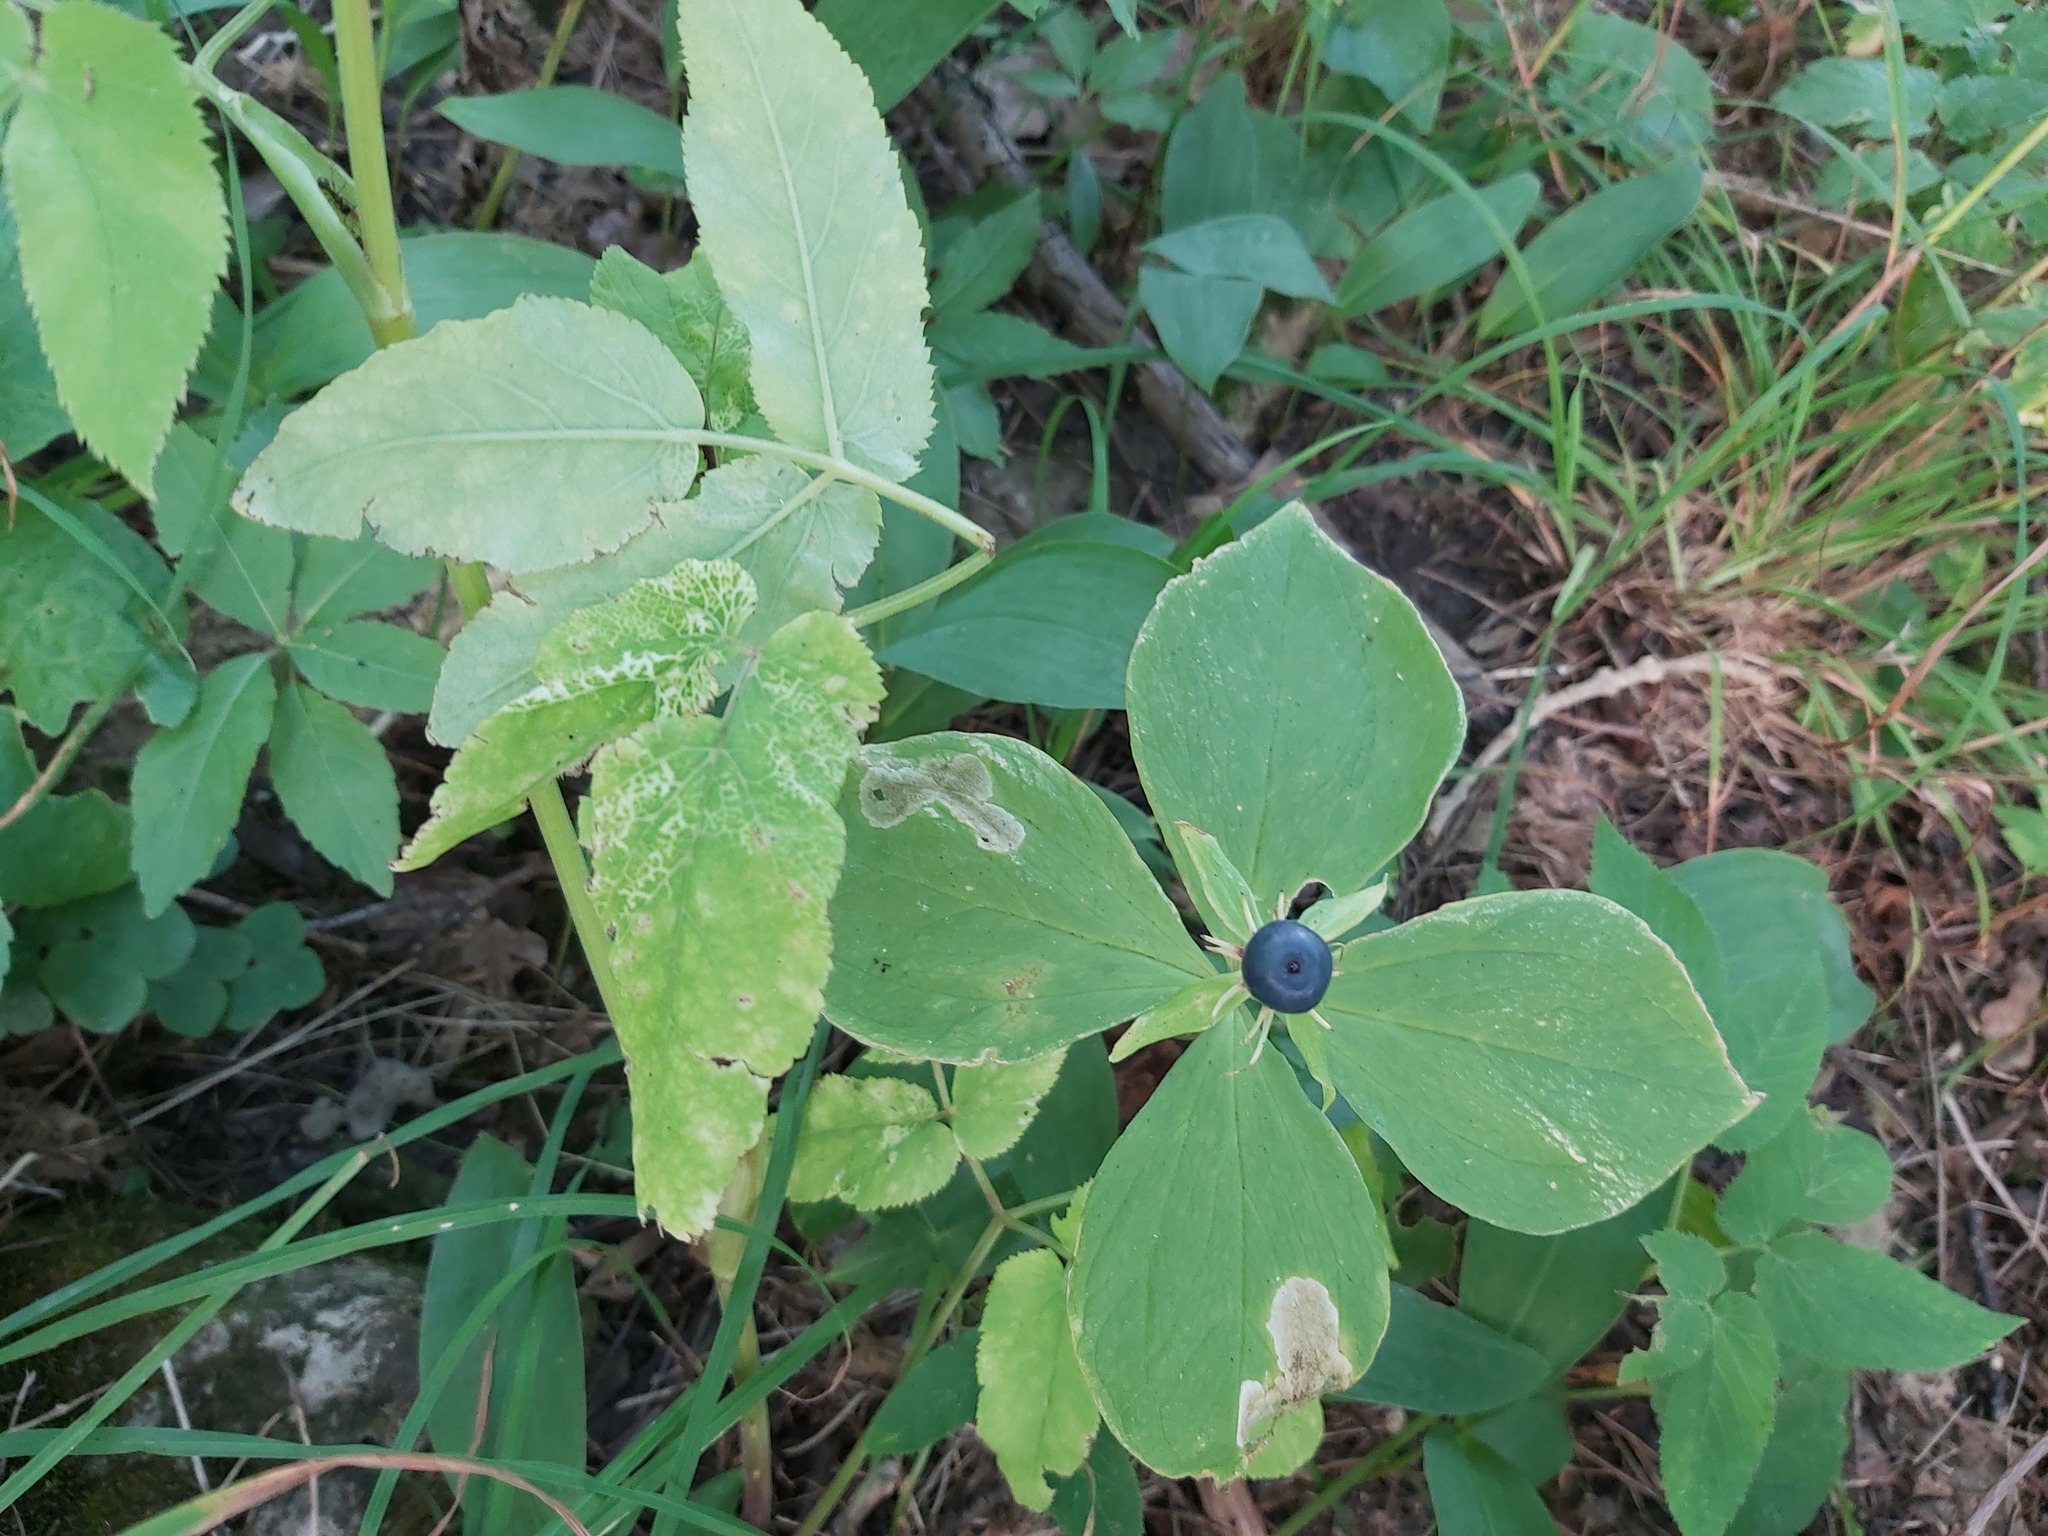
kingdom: Plantae
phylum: Tracheophyta
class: Liliopsida
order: Liliales
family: Melanthiaceae
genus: Paris
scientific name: Paris quadrifolia
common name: Herb-paris
